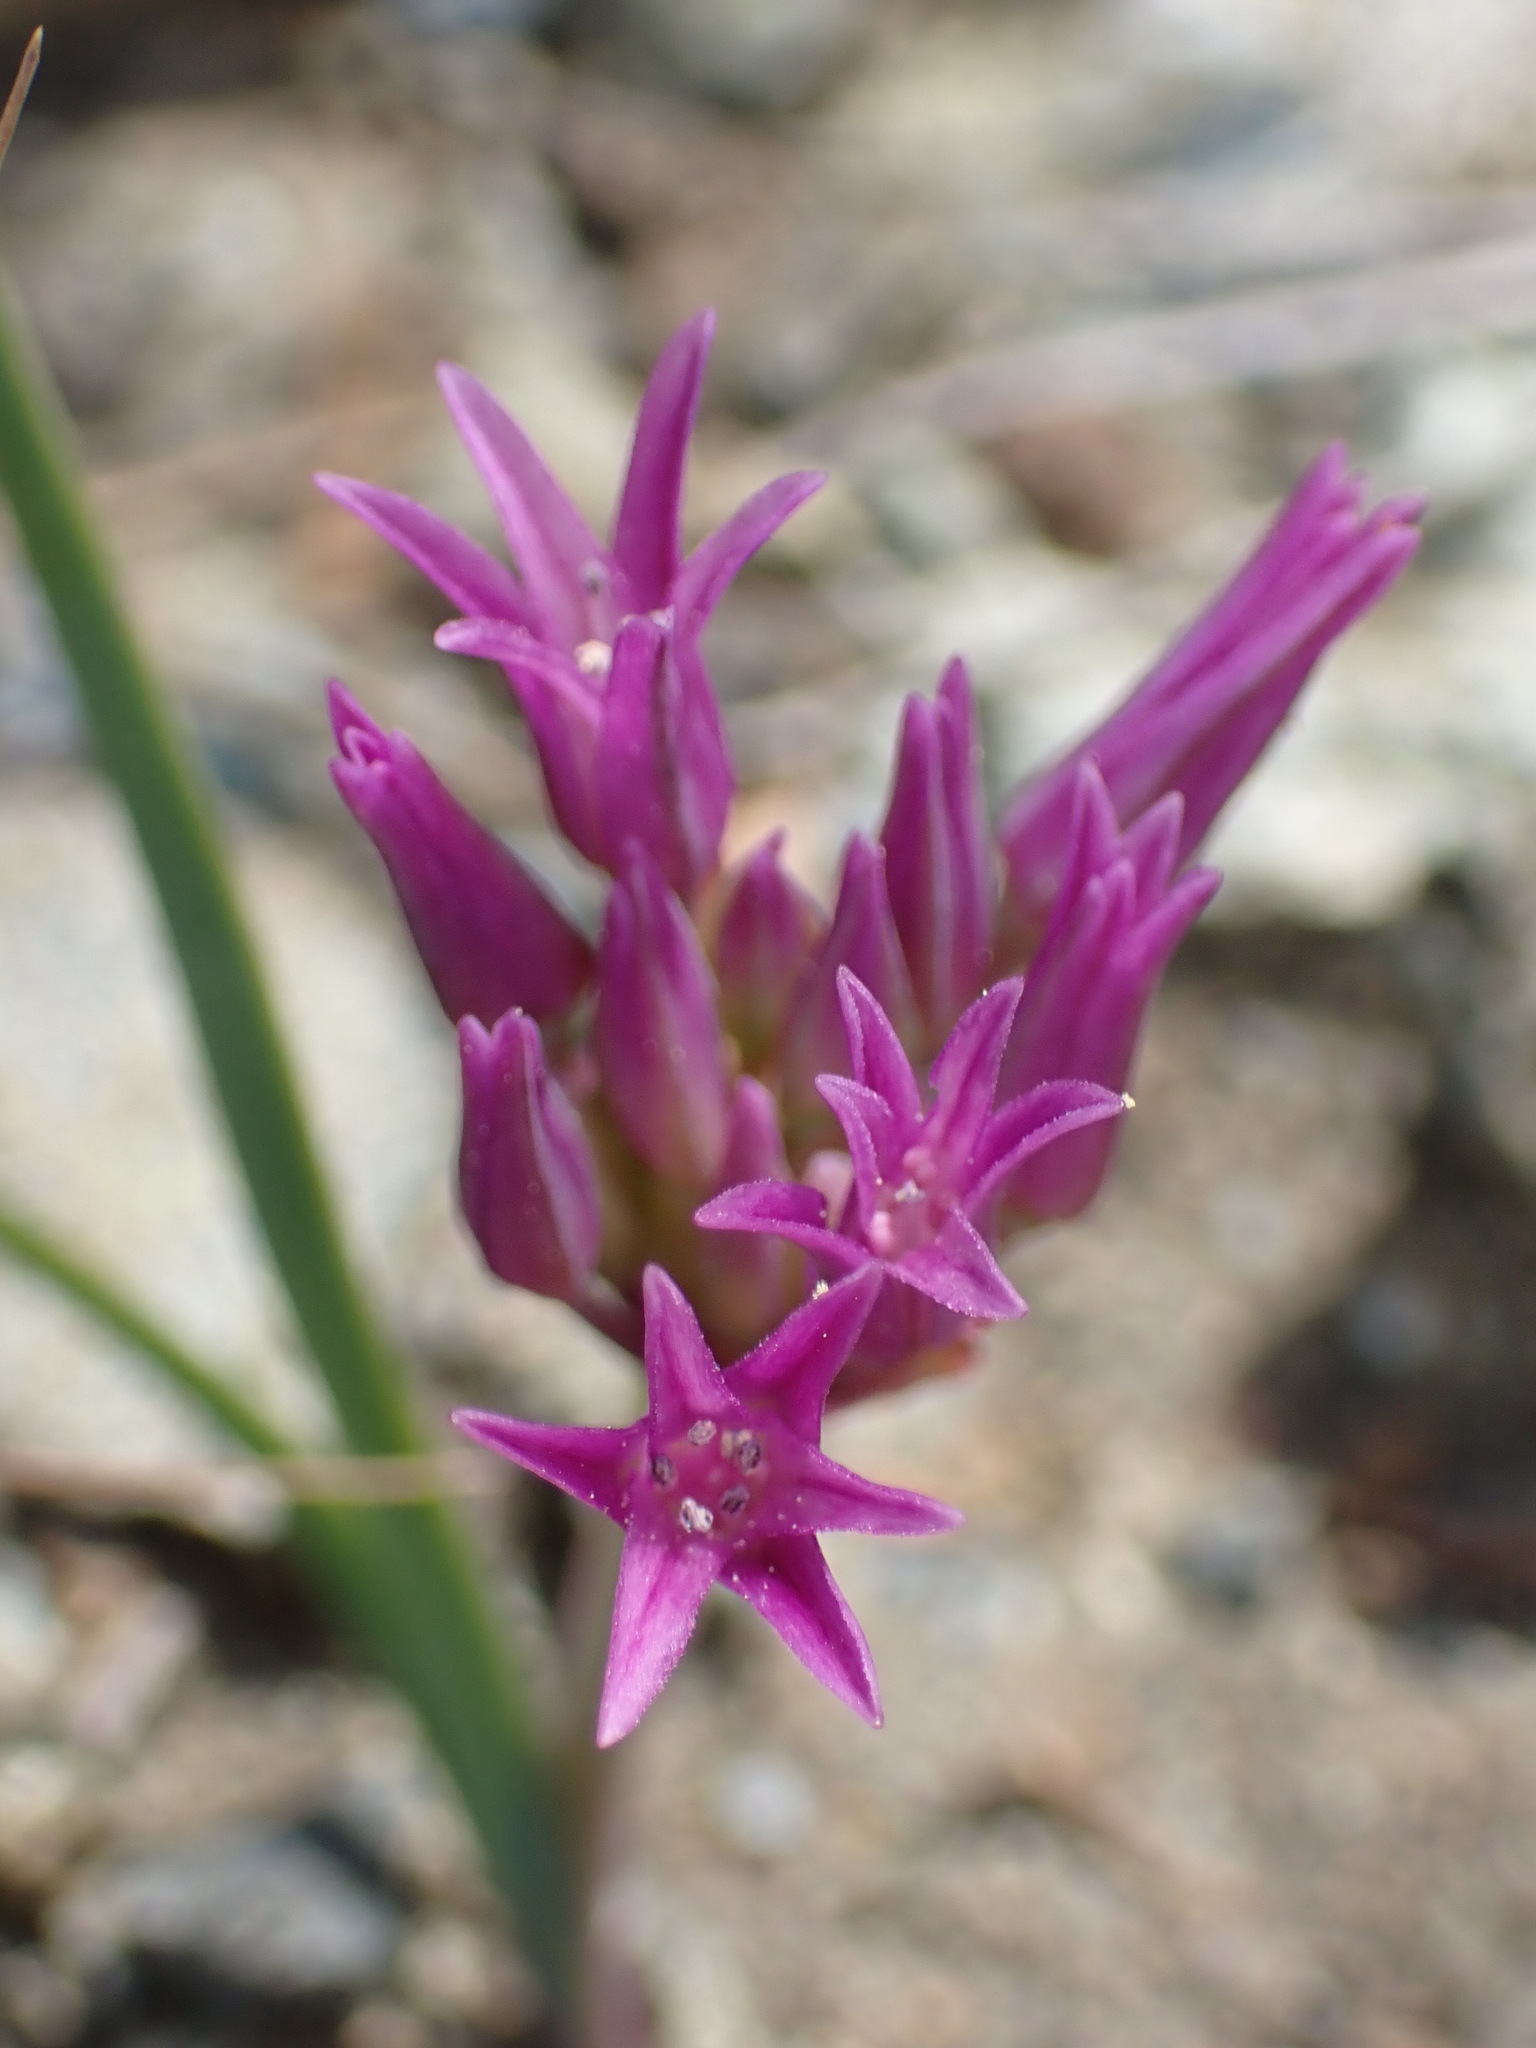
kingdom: Plantae
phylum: Tracheophyta
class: Liliopsida
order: Asparagales
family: Amaryllidaceae
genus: Allium
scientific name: Allium falcifolium
